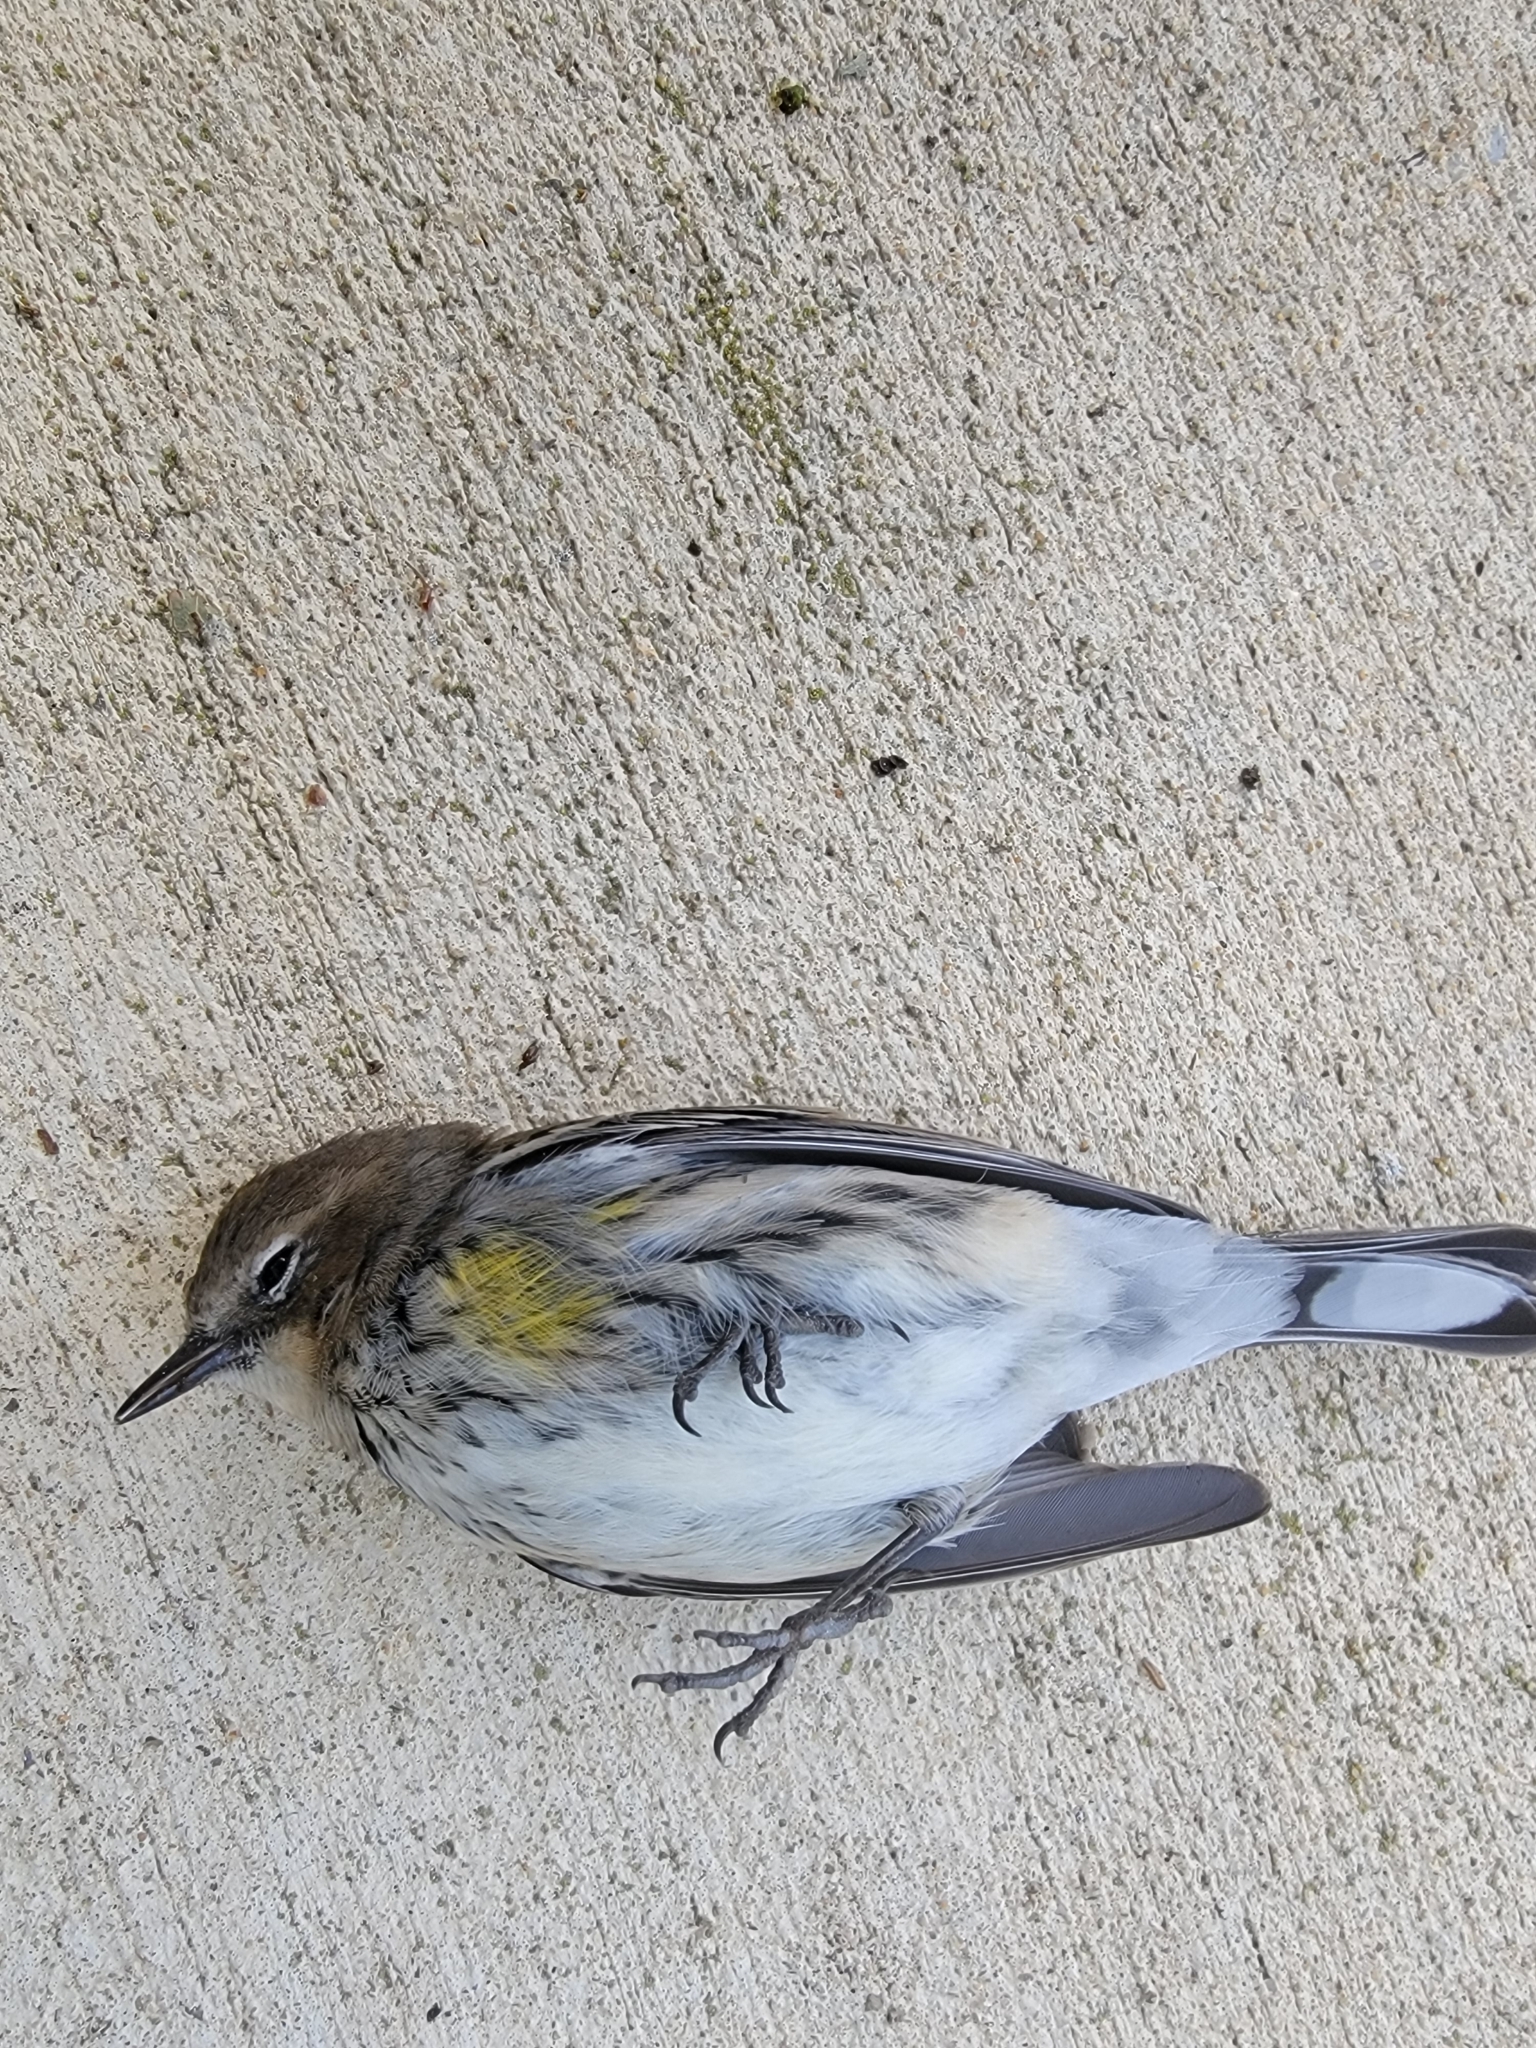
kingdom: Animalia
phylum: Chordata
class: Aves
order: Passeriformes
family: Parulidae
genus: Setophaga
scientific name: Setophaga coronata
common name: Myrtle warbler
